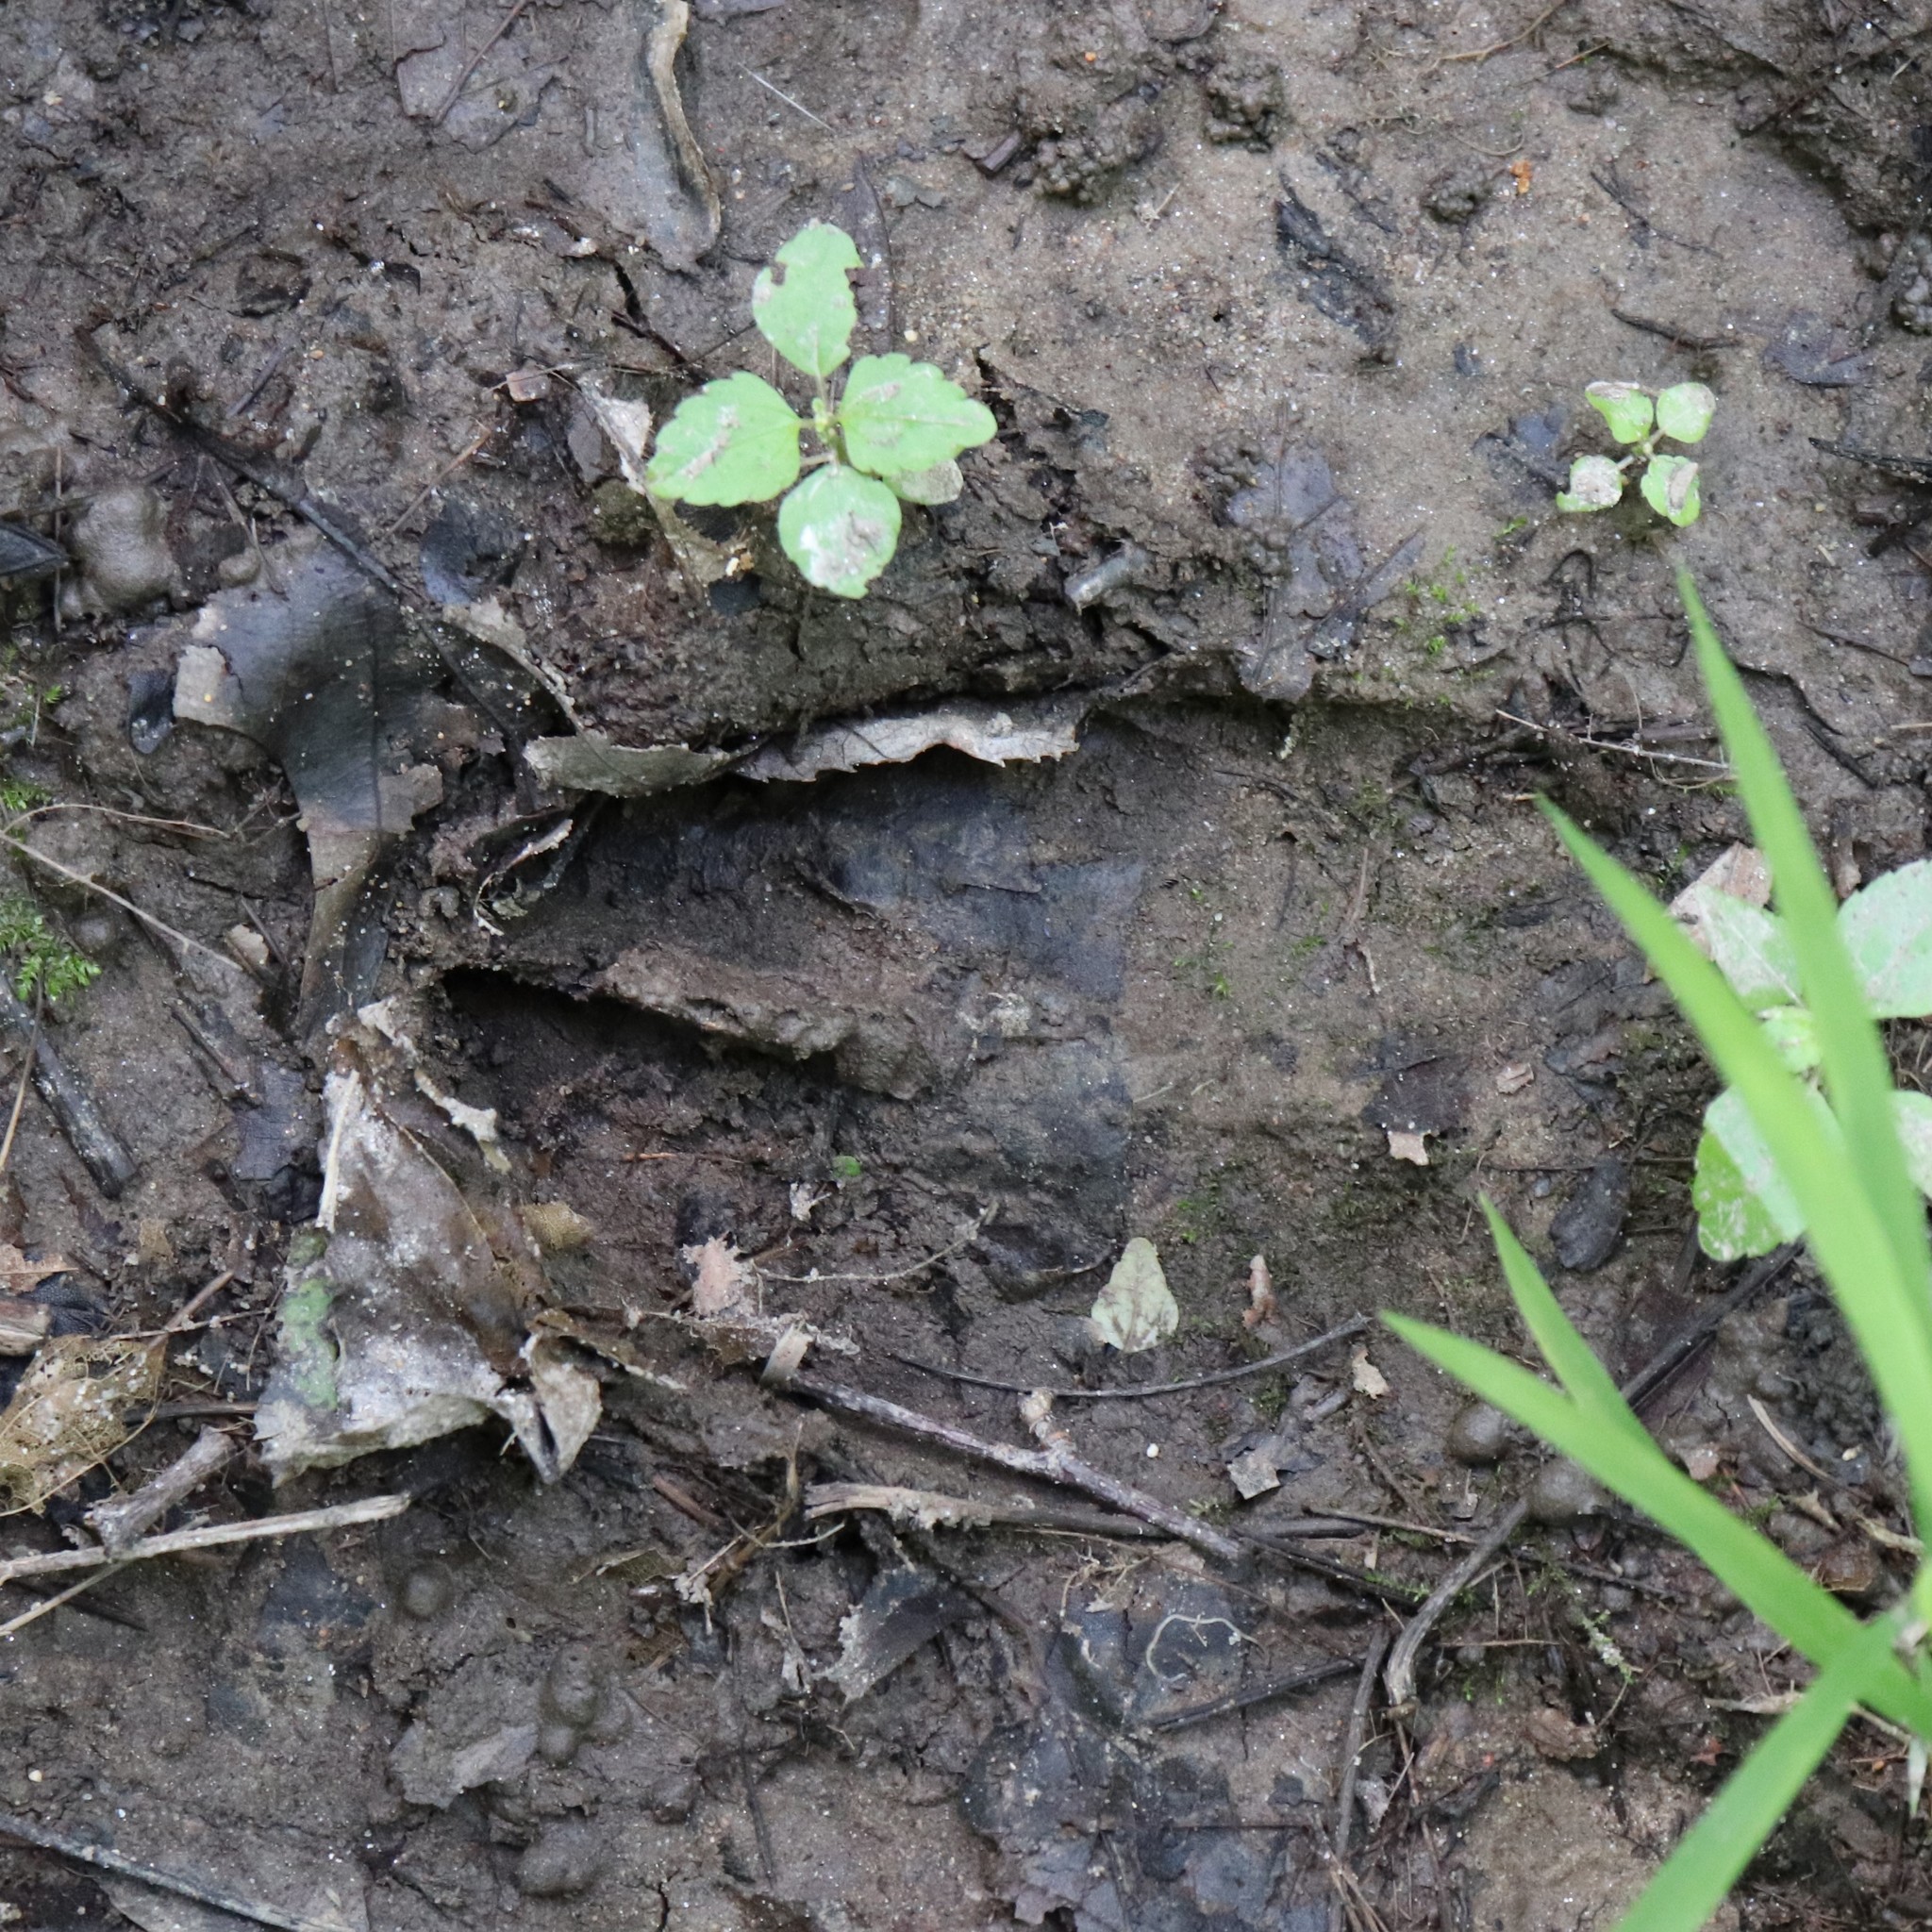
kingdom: Animalia
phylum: Chordata
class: Mammalia
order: Artiodactyla
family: Cervidae
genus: Odocoileus
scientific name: Odocoileus virginianus
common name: White-tailed deer
